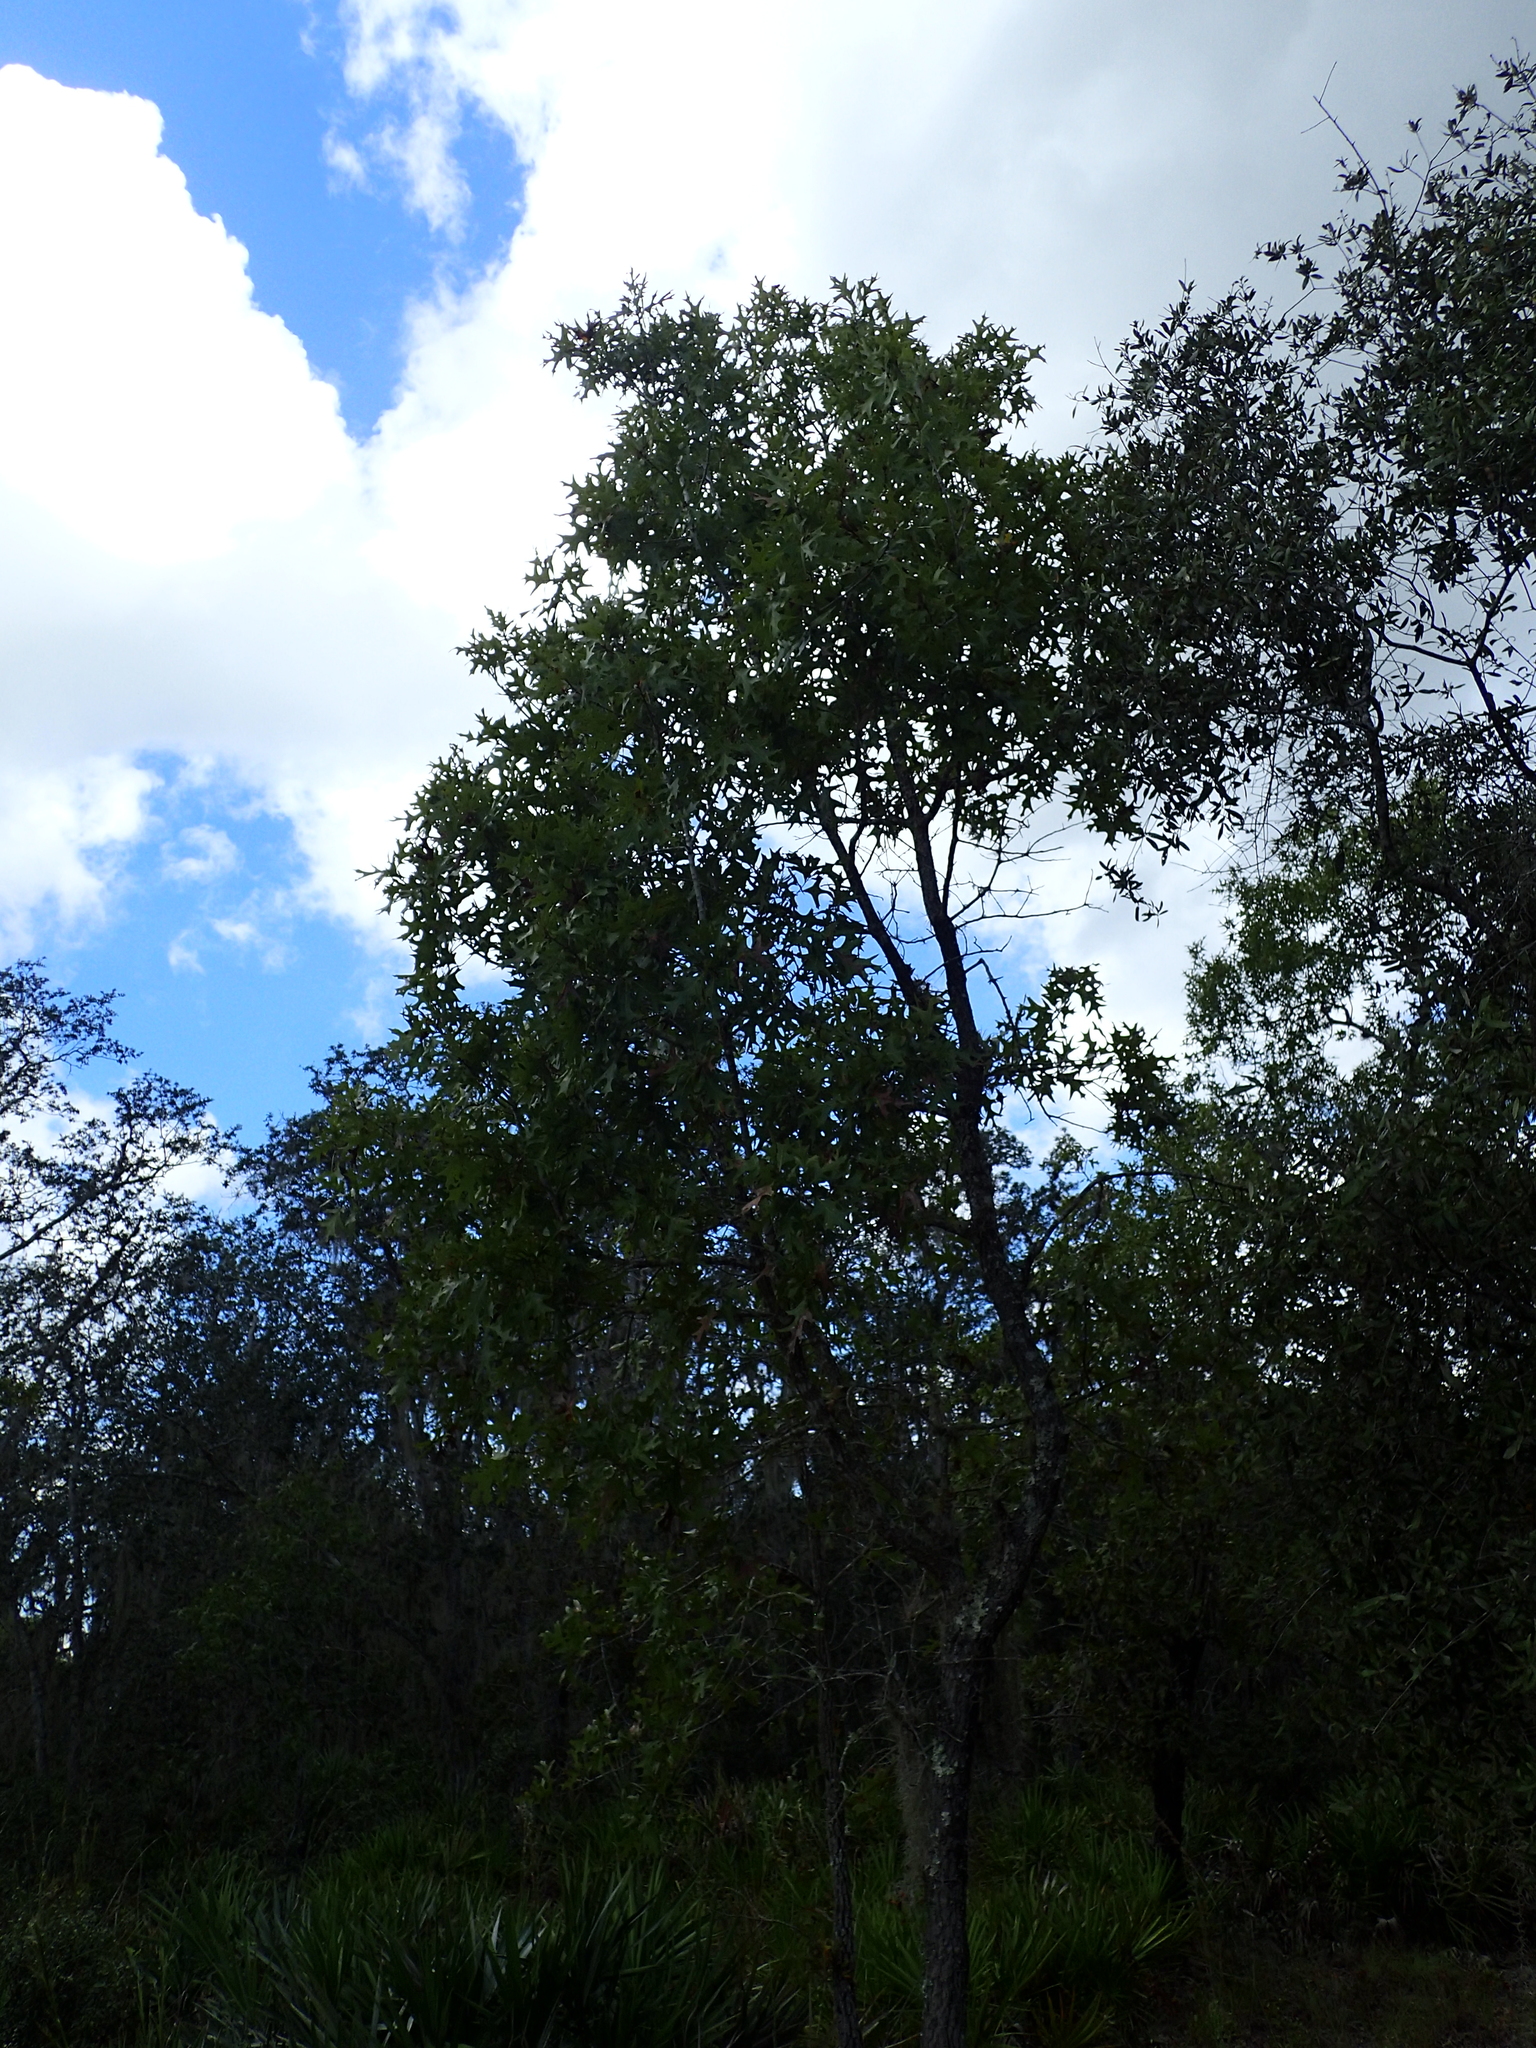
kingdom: Plantae
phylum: Tracheophyta
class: Magnoliopsida
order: Fagales
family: Fagaceae
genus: Quercus
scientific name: Quercus laevis
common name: Turkey oak
